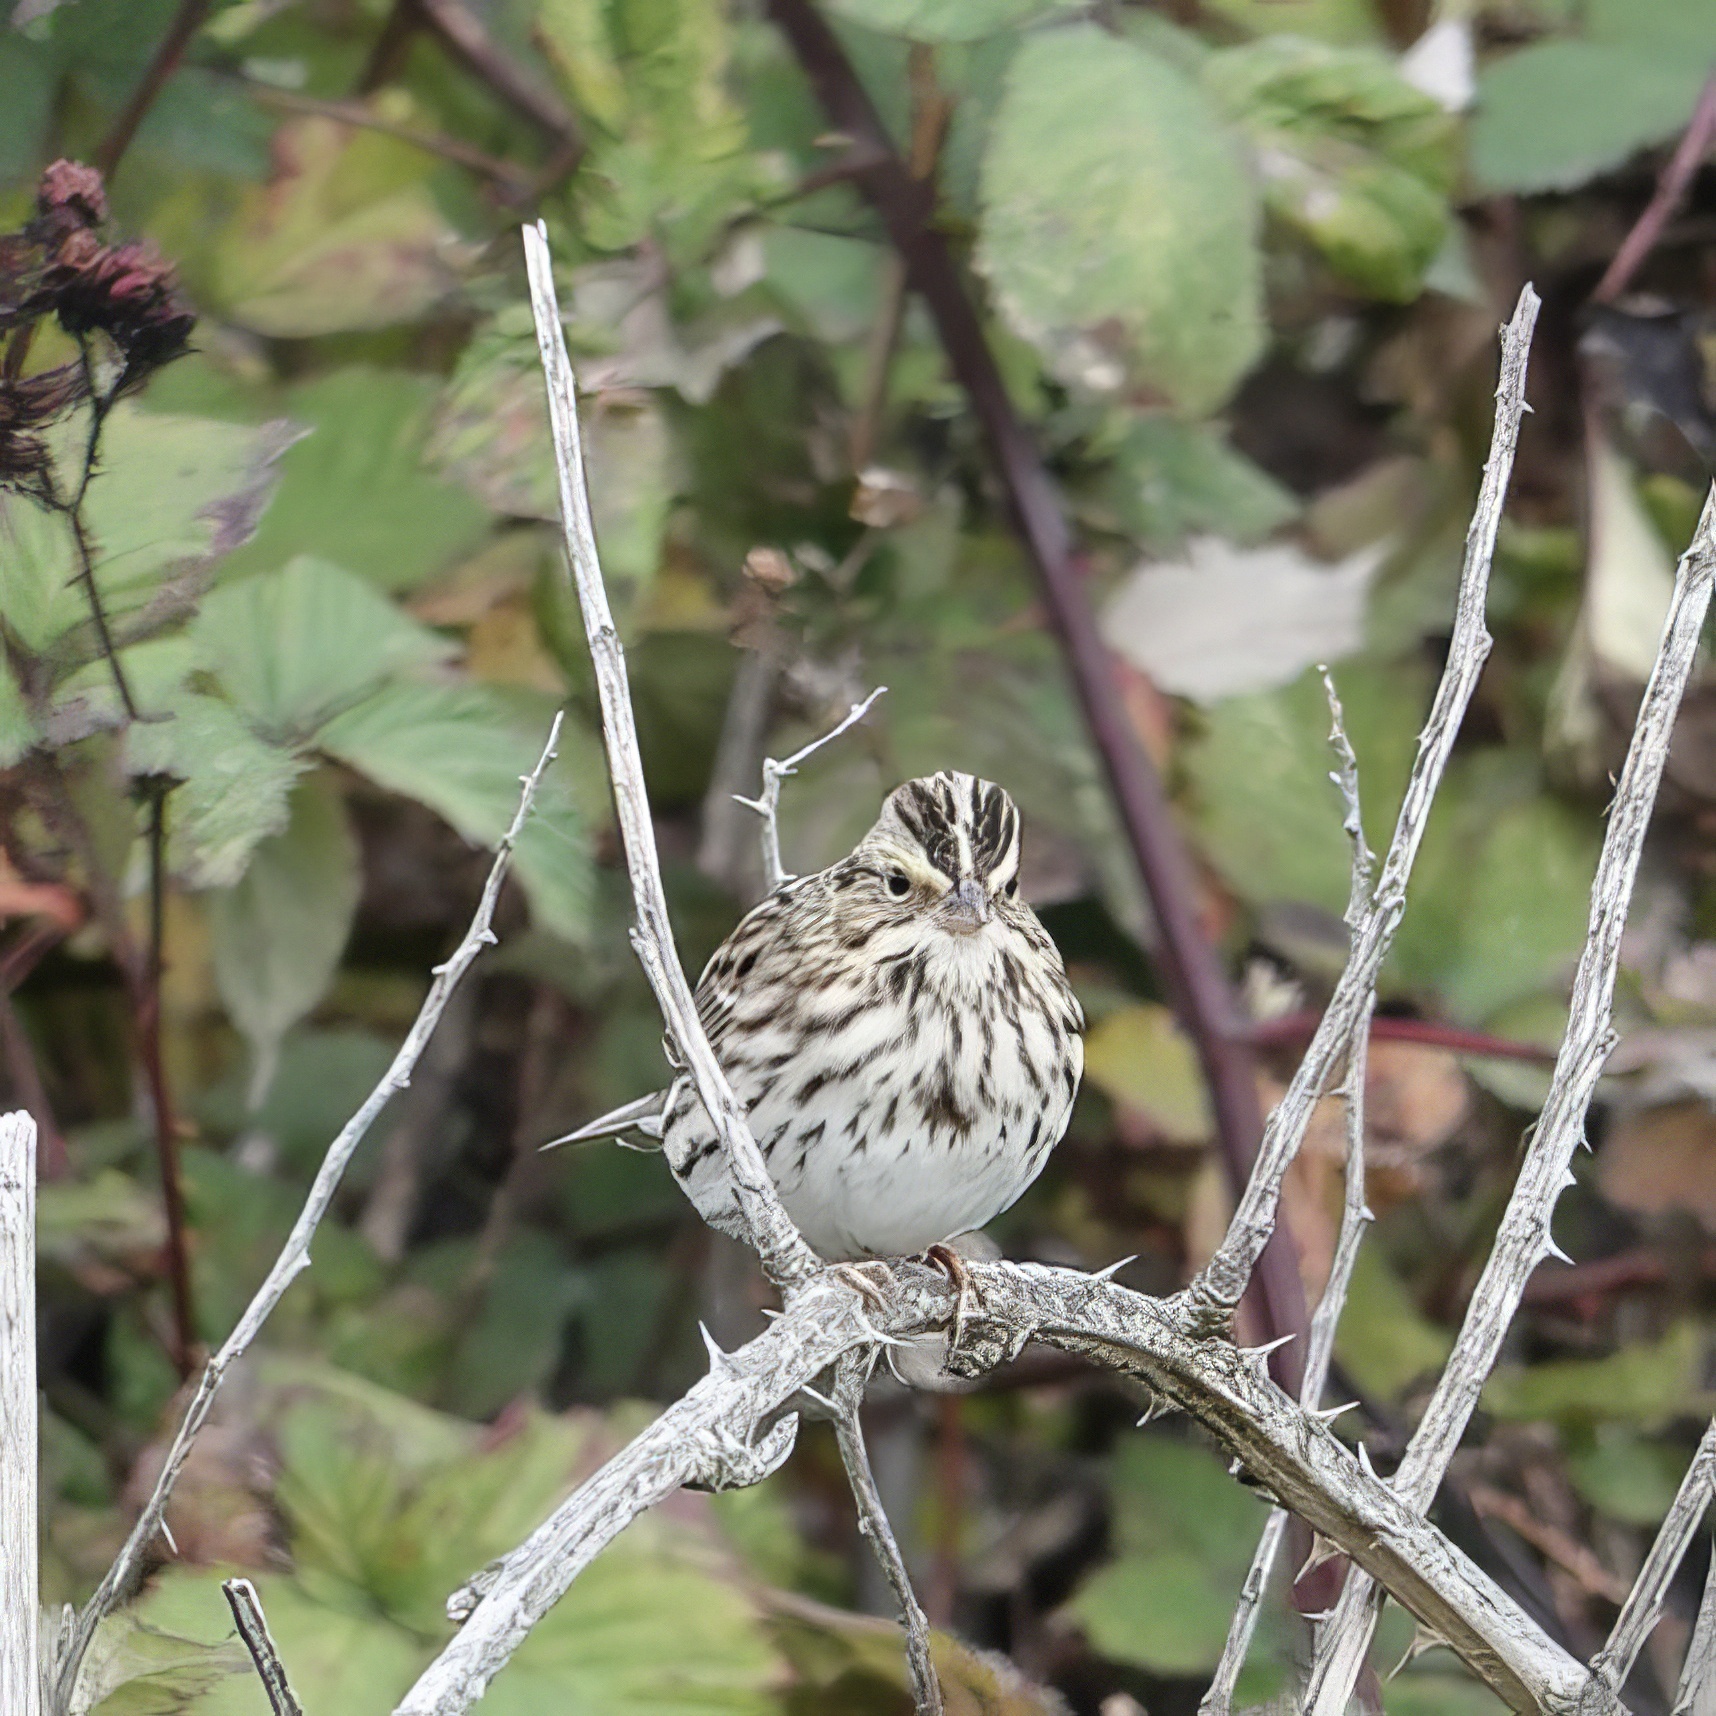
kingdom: Animalia
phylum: Chordata
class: Aves
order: Passeriformes
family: Passerellidae
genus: Passerculus
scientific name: Passerculus sandwichensis
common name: Savannah sparrow
